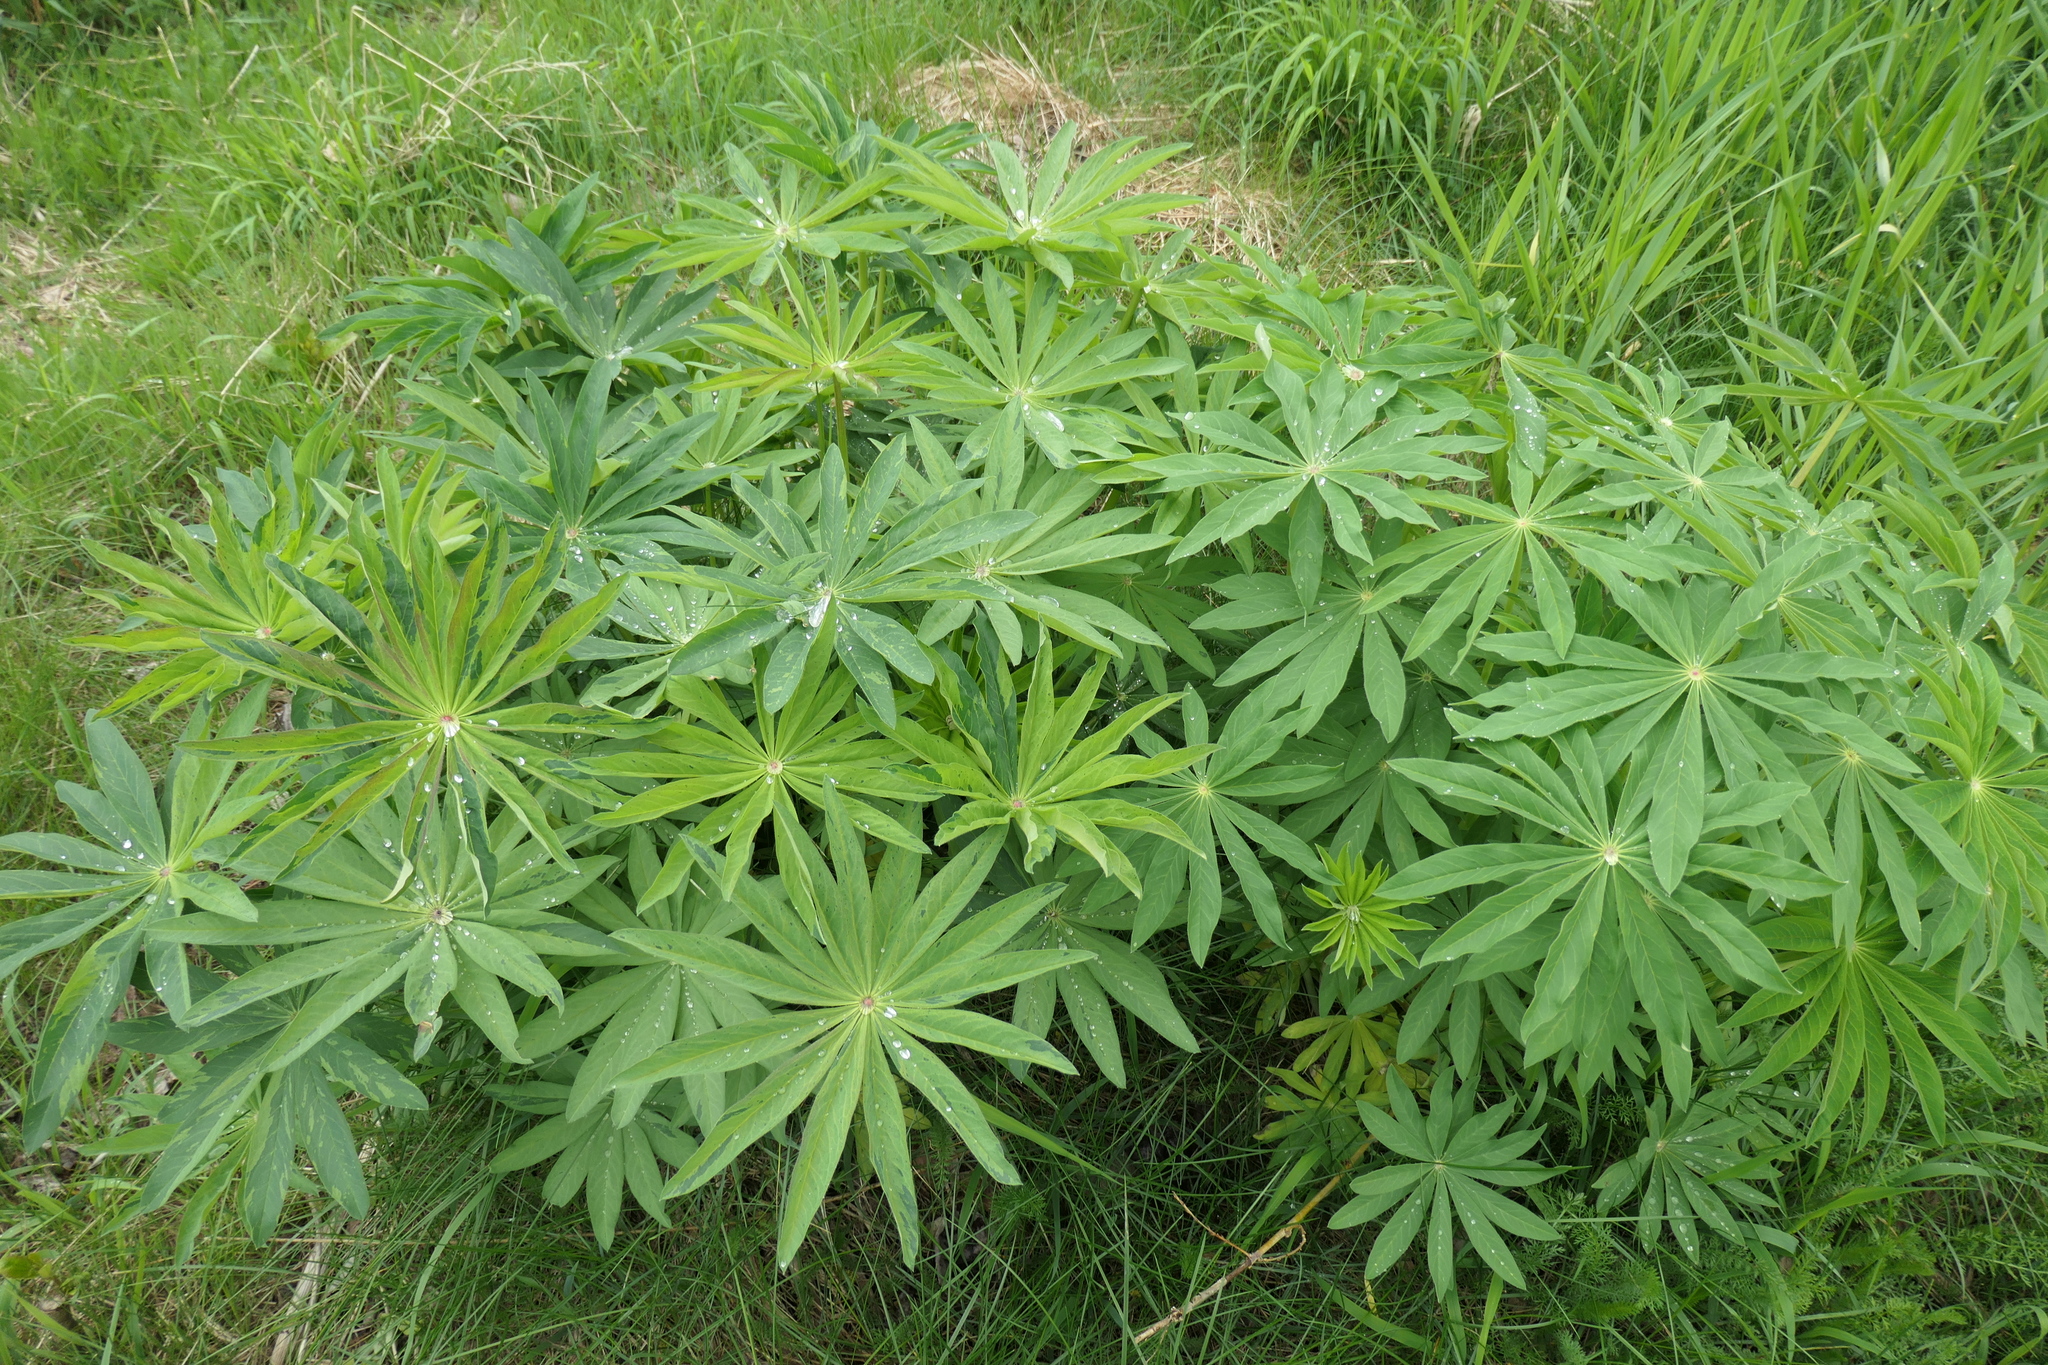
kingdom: Plantae
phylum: Tracheophyta
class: Magnoliopsida
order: Fabales
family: Fabaceae
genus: Lupinus
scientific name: Lupinus polyphyllus
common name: Garden lupin
